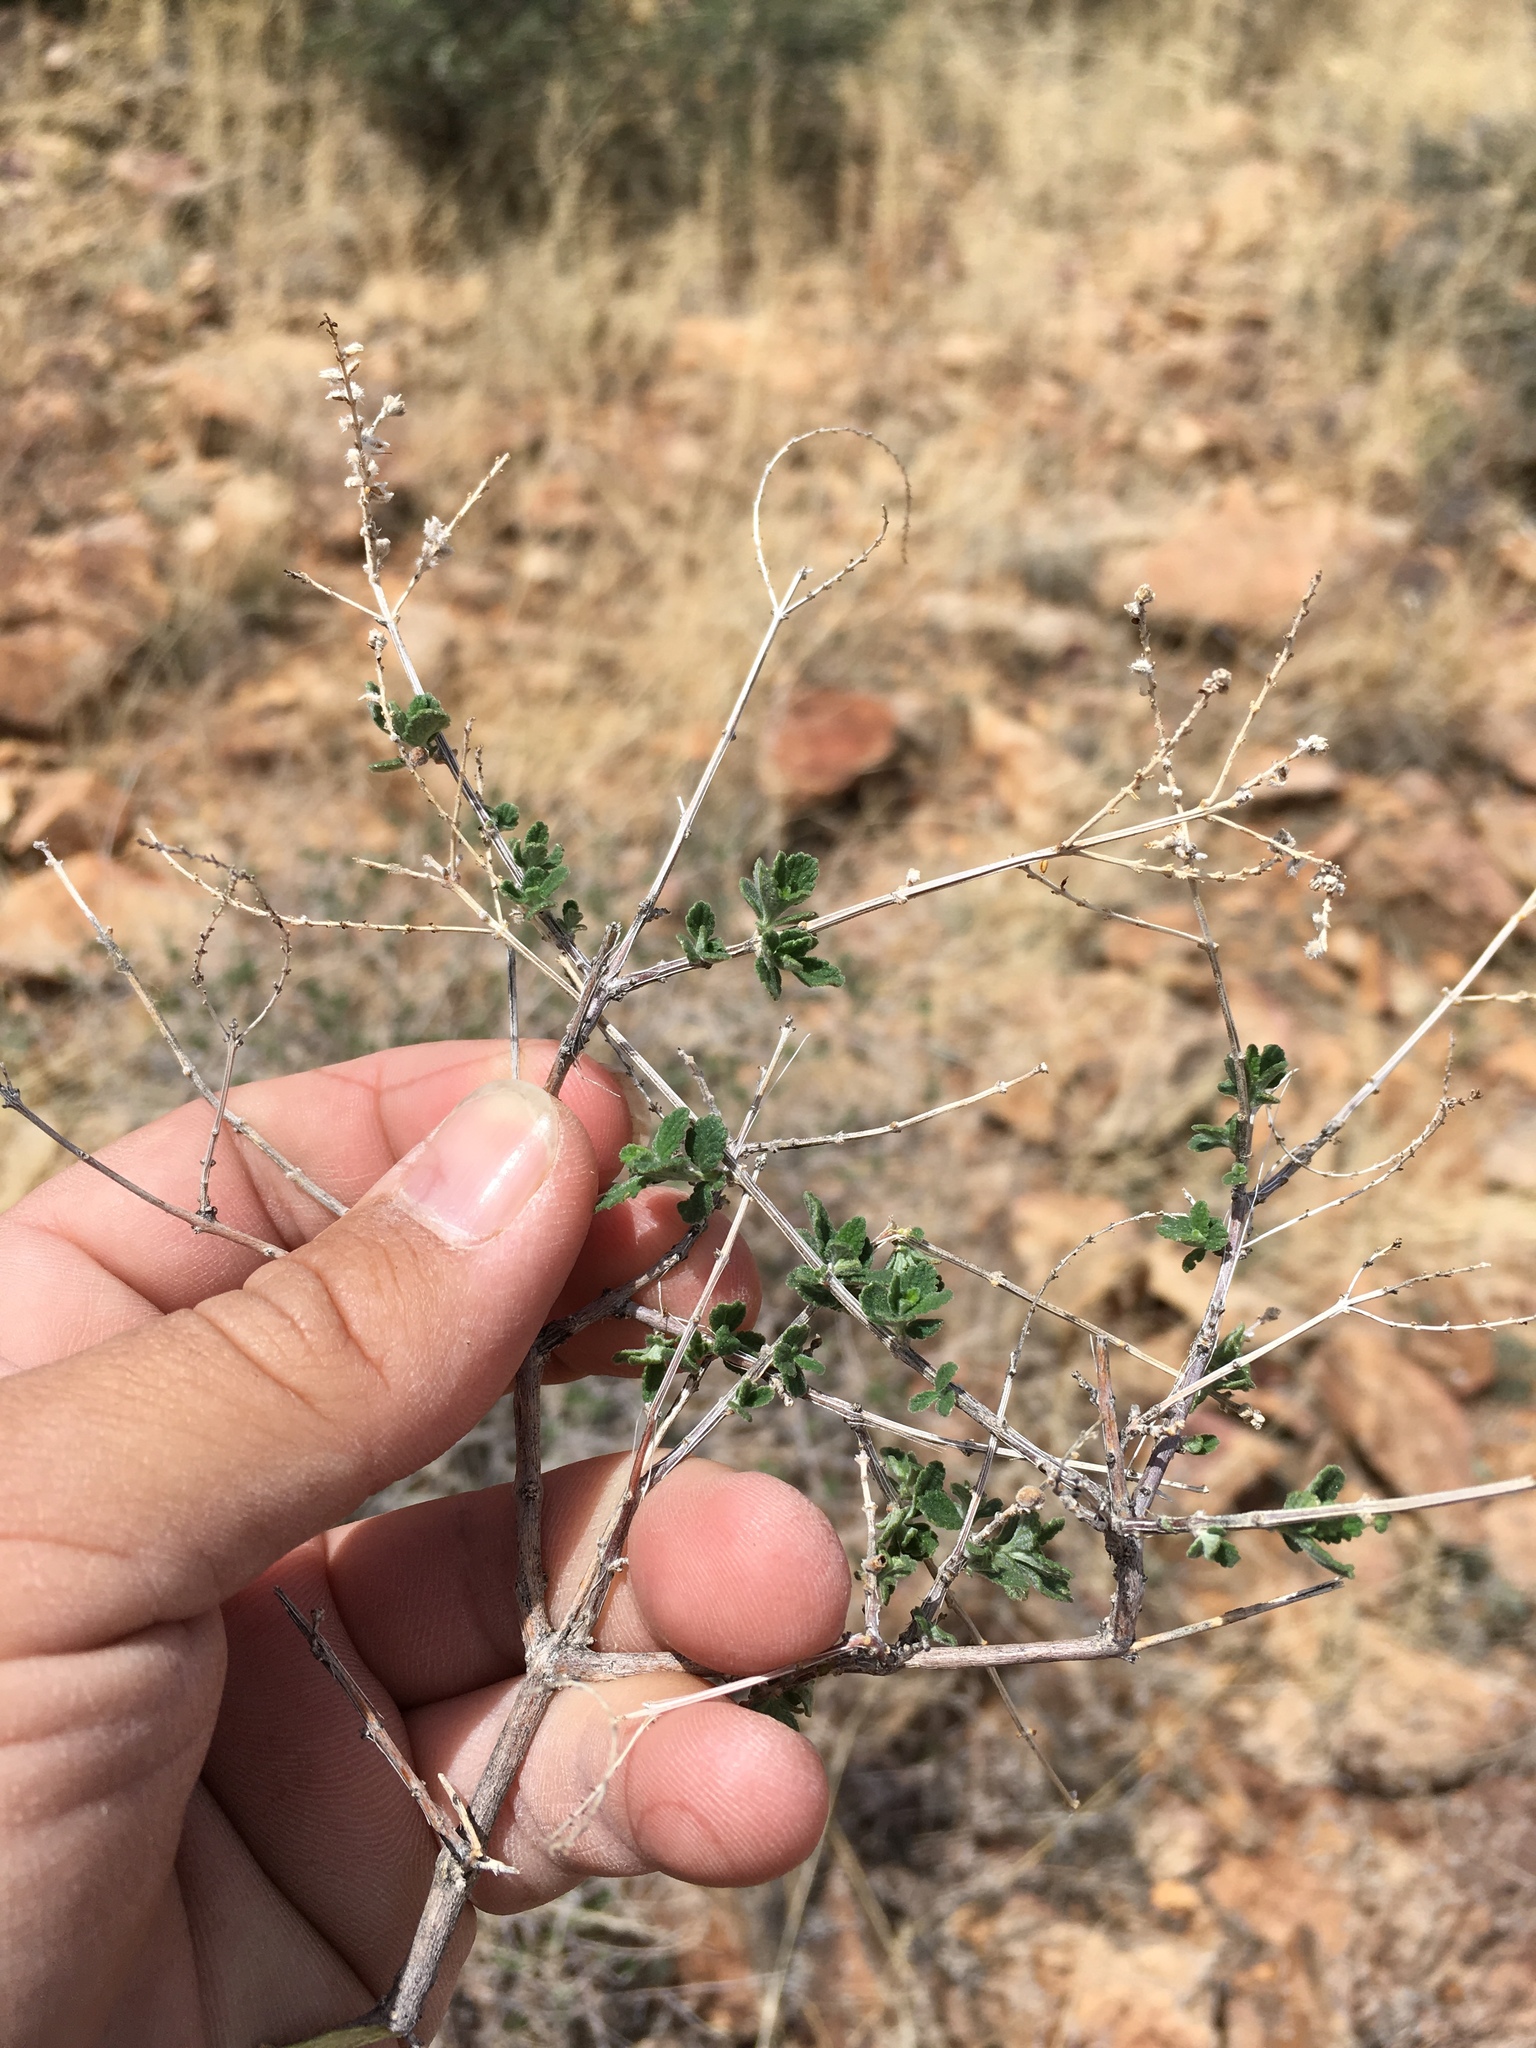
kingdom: Plantae
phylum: Tracheophyta
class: Magnoliopsida
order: Lamiales
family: Verbenaceae
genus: Aloysia
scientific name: Aloysia wrightii
